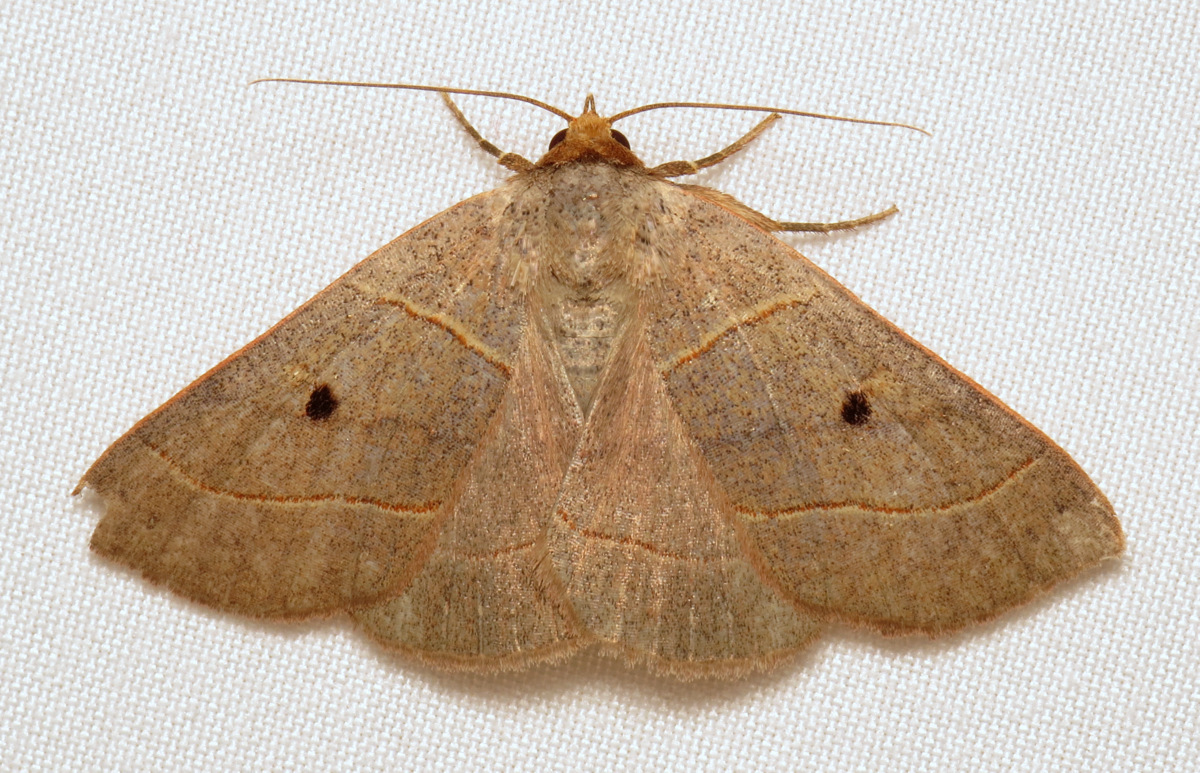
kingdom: Animalia
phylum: Arthropoda
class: Insecta
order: Lepidoptera
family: Erebidae
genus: Panopoda
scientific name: Panopoda rufimargo
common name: Red-lined panopoda moth
